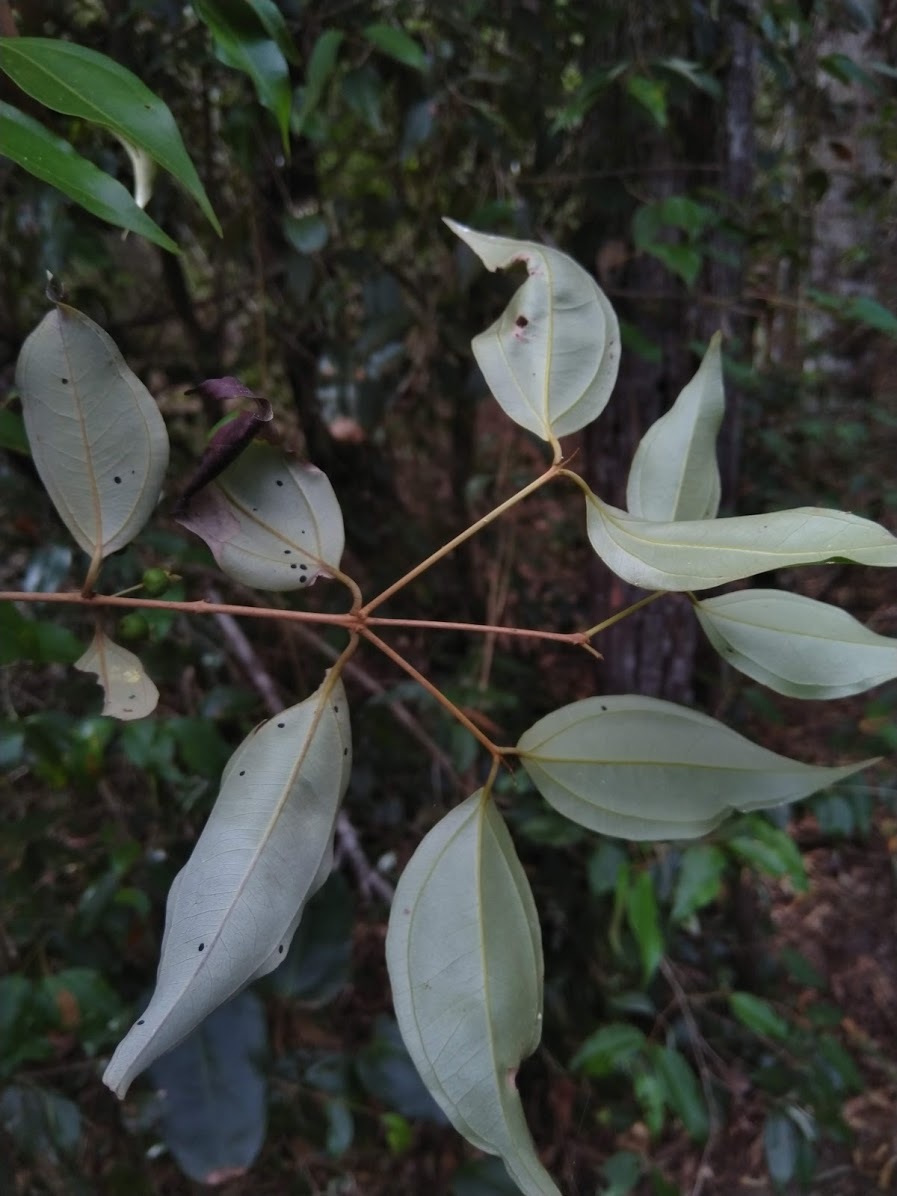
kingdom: Plantae
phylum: Tracheophyta
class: Magnoliopsida
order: Myrtales
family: Myrtaceae
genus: Rhodamnia
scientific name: Rhodamnia acuminata
